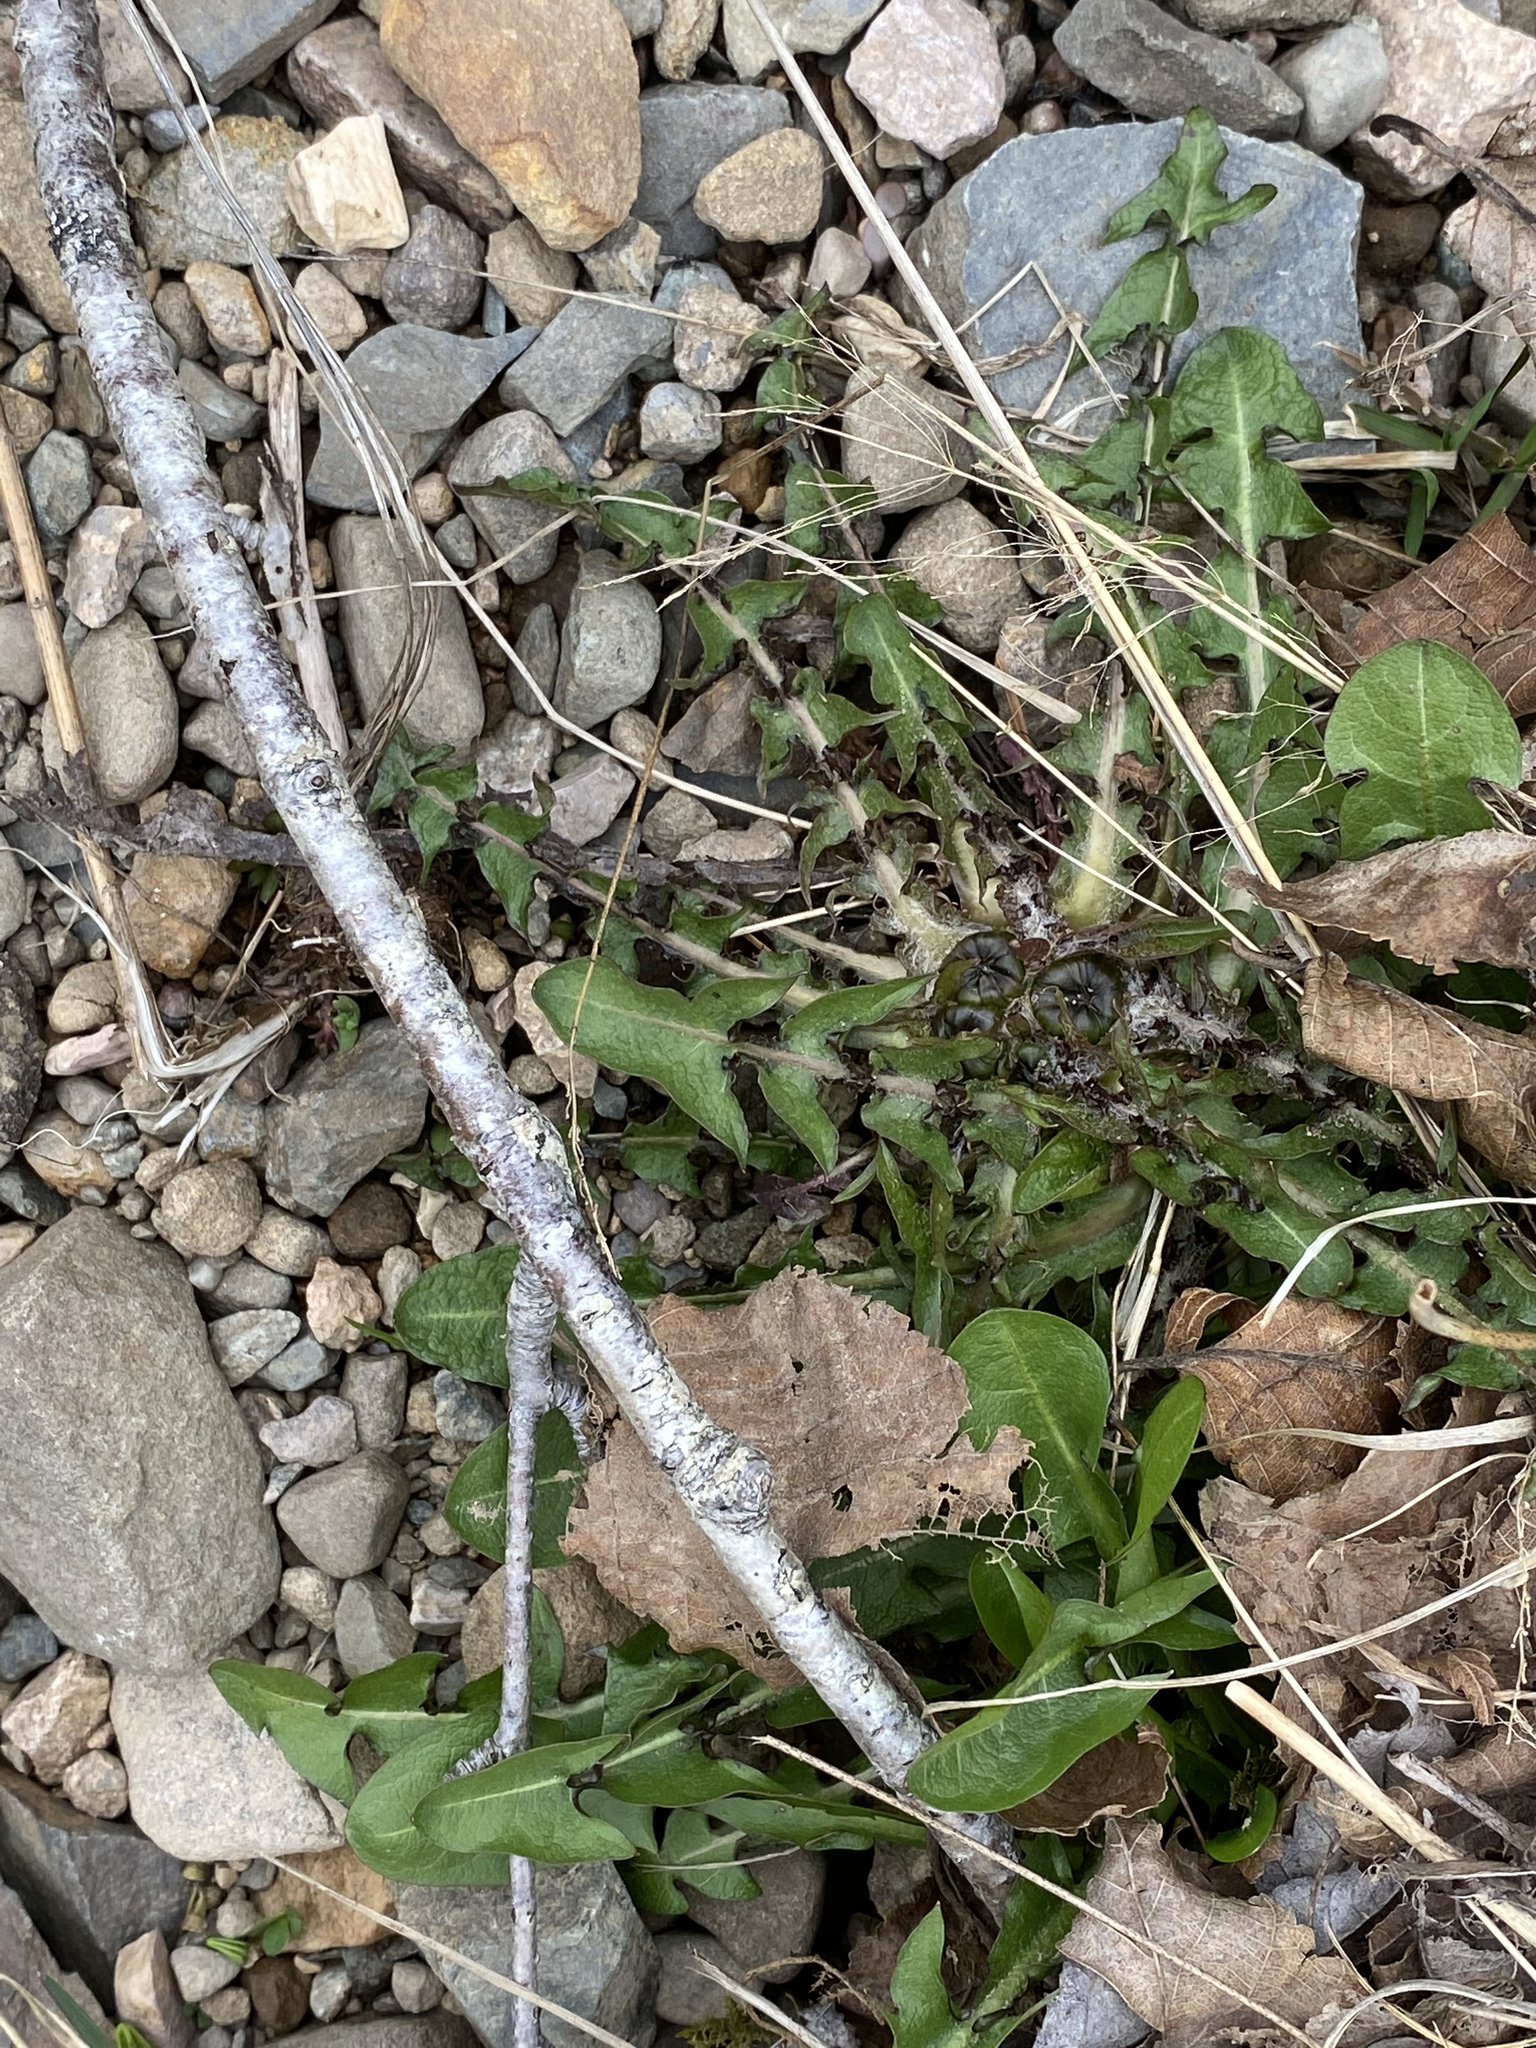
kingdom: Plantae
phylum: Tracheophyta
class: Magnoliopsida
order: Asterales
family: Asteraceae
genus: Taraxacum
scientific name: Taraxacum officinale
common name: Common dandelion
